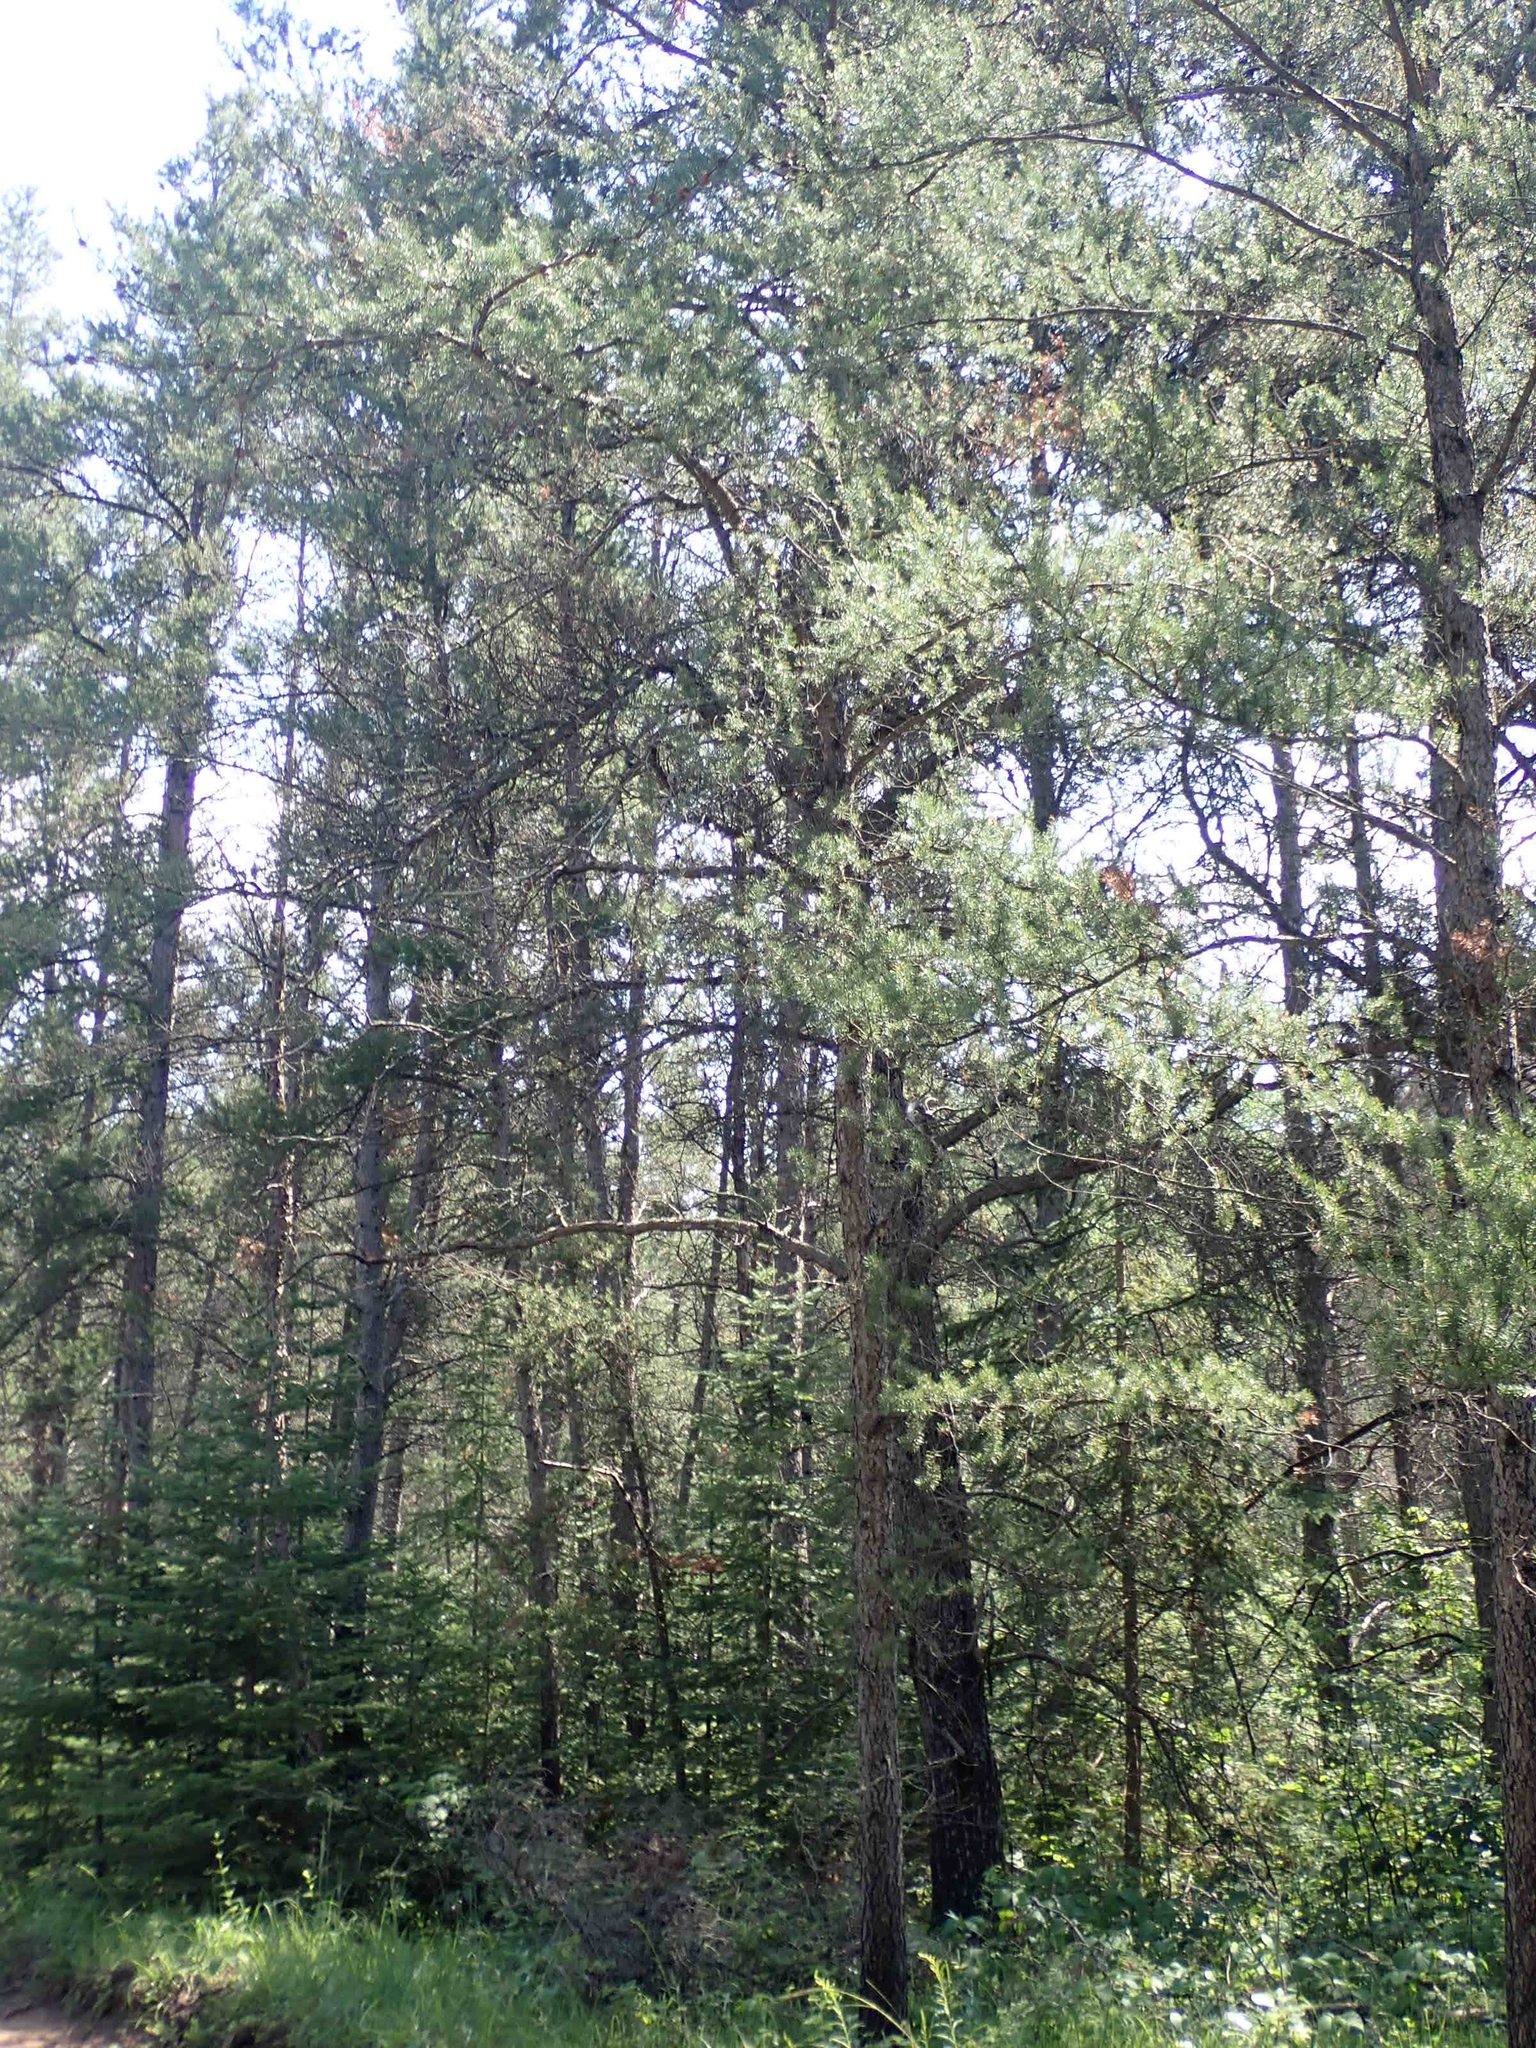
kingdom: Plantae
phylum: Tracheophyta
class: Pinopsida
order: Pinales
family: Pinaceae
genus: Pinus
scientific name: Pinus banksiana
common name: Jack pine
